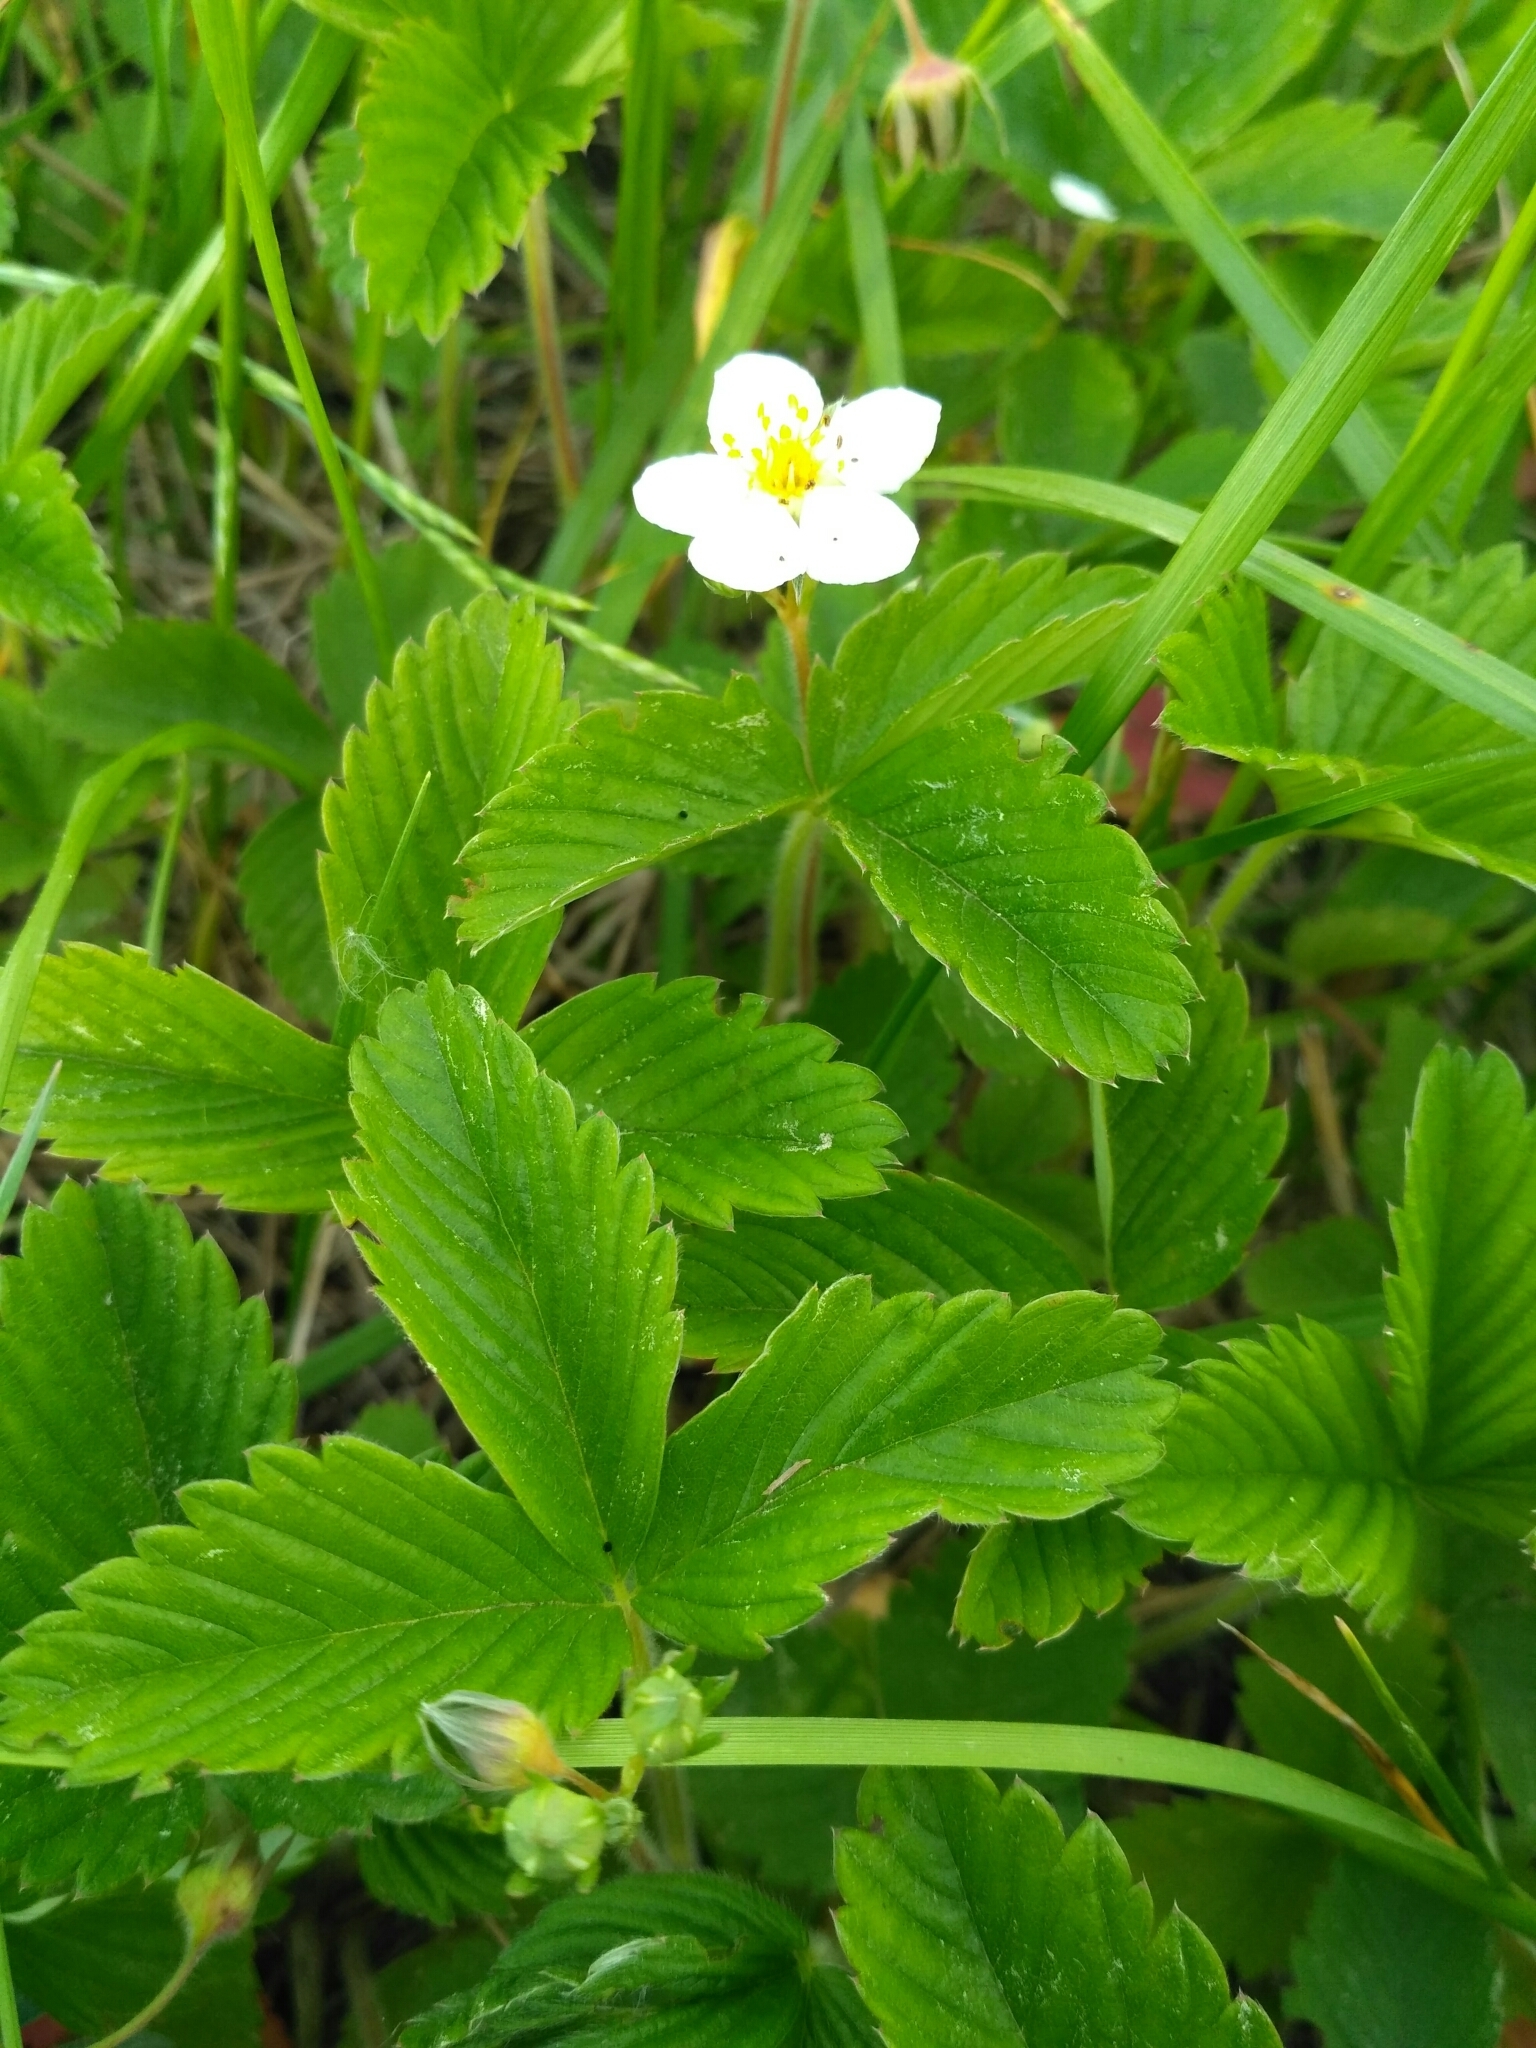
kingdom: Plantae
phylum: Tracheophyta
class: Magnoliopsida
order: Rosales
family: Rosaceae
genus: Fragaria
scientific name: Fragaria viridis
